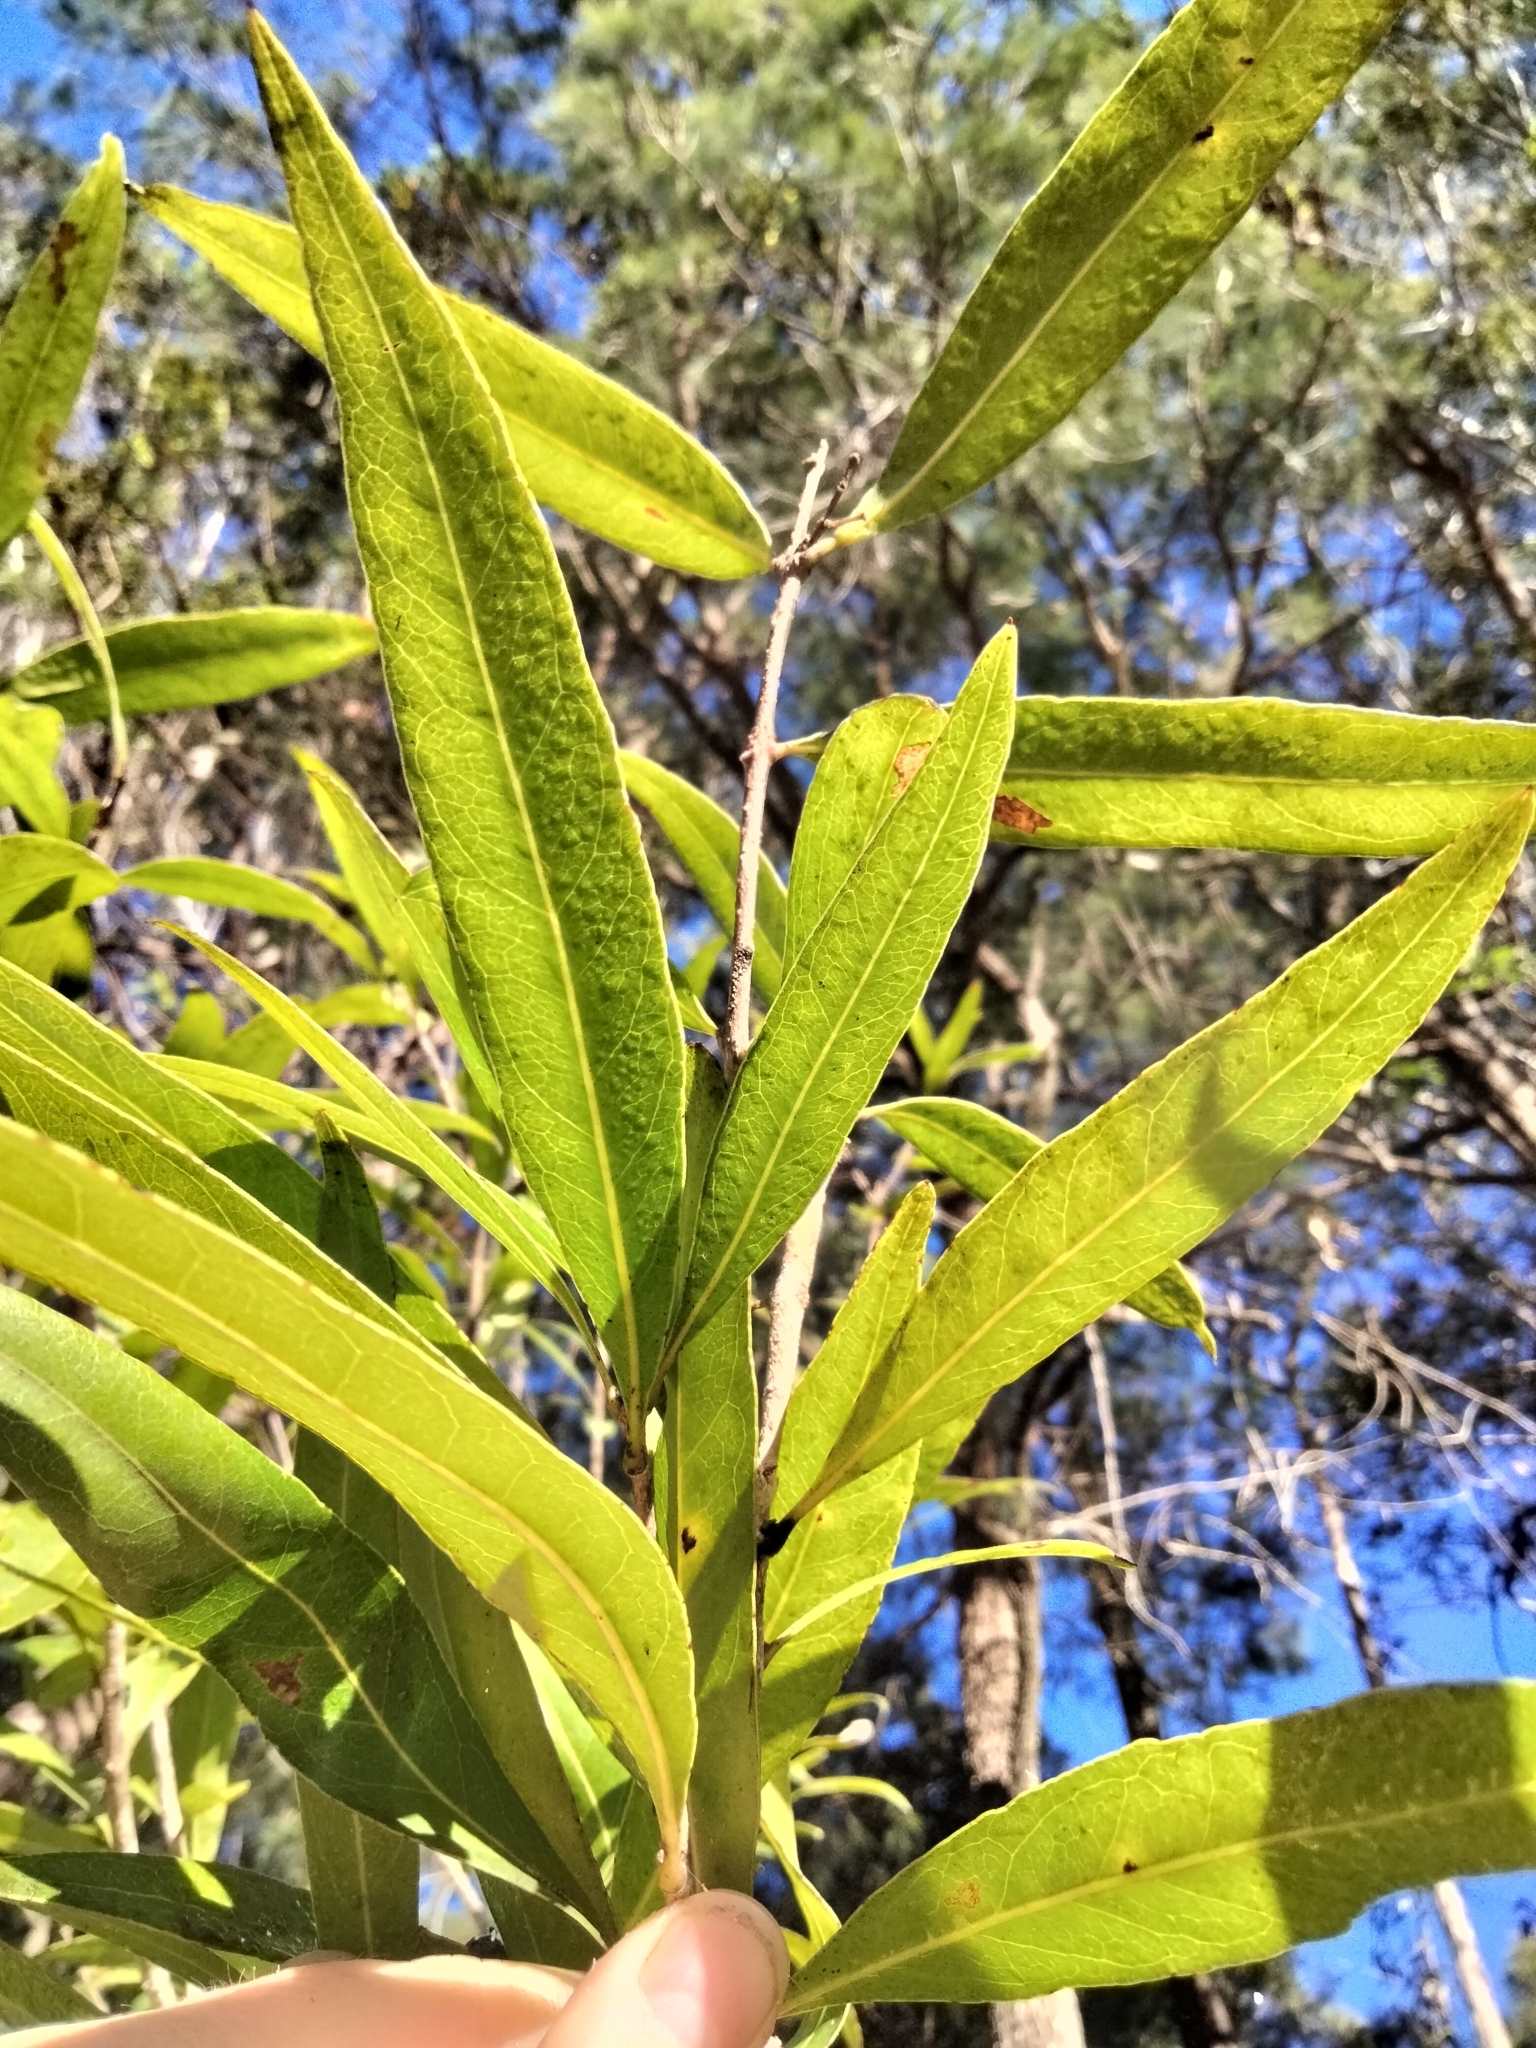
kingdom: Plantae
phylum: Tracheophyta
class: Magnoliopsida
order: Lamiales
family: Oleaceae
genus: Notelaea
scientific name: Notelaea longifolia
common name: Large mock olive
